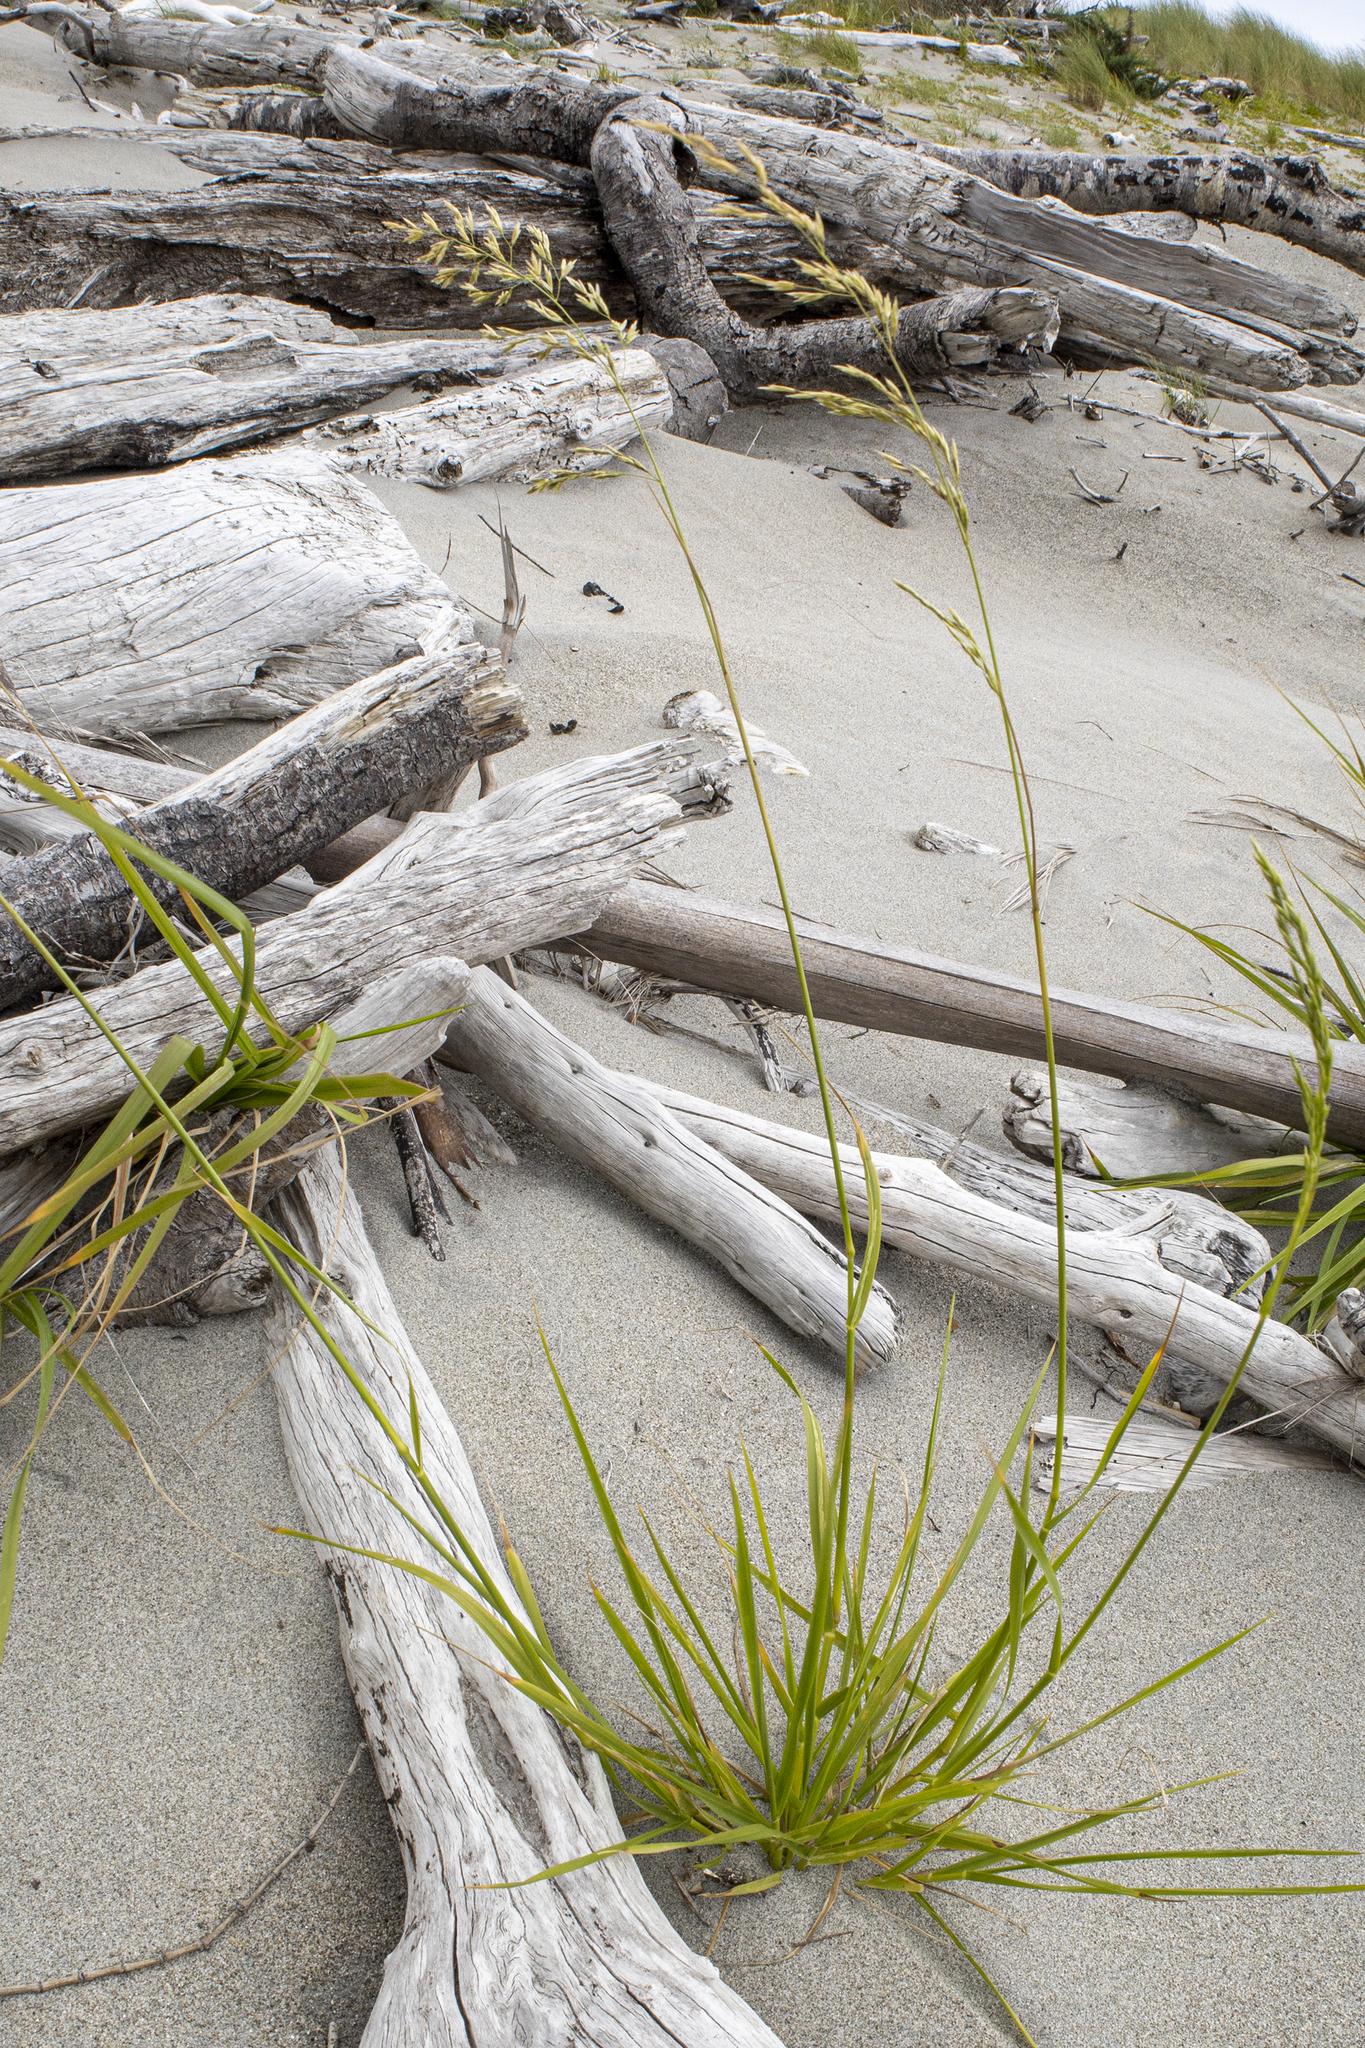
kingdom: Plantae
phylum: Tracheophyta
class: Liliopsida
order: Poales
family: Poaceae
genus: Lolium
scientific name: Lolium arundinaceum
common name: Reed fescue
